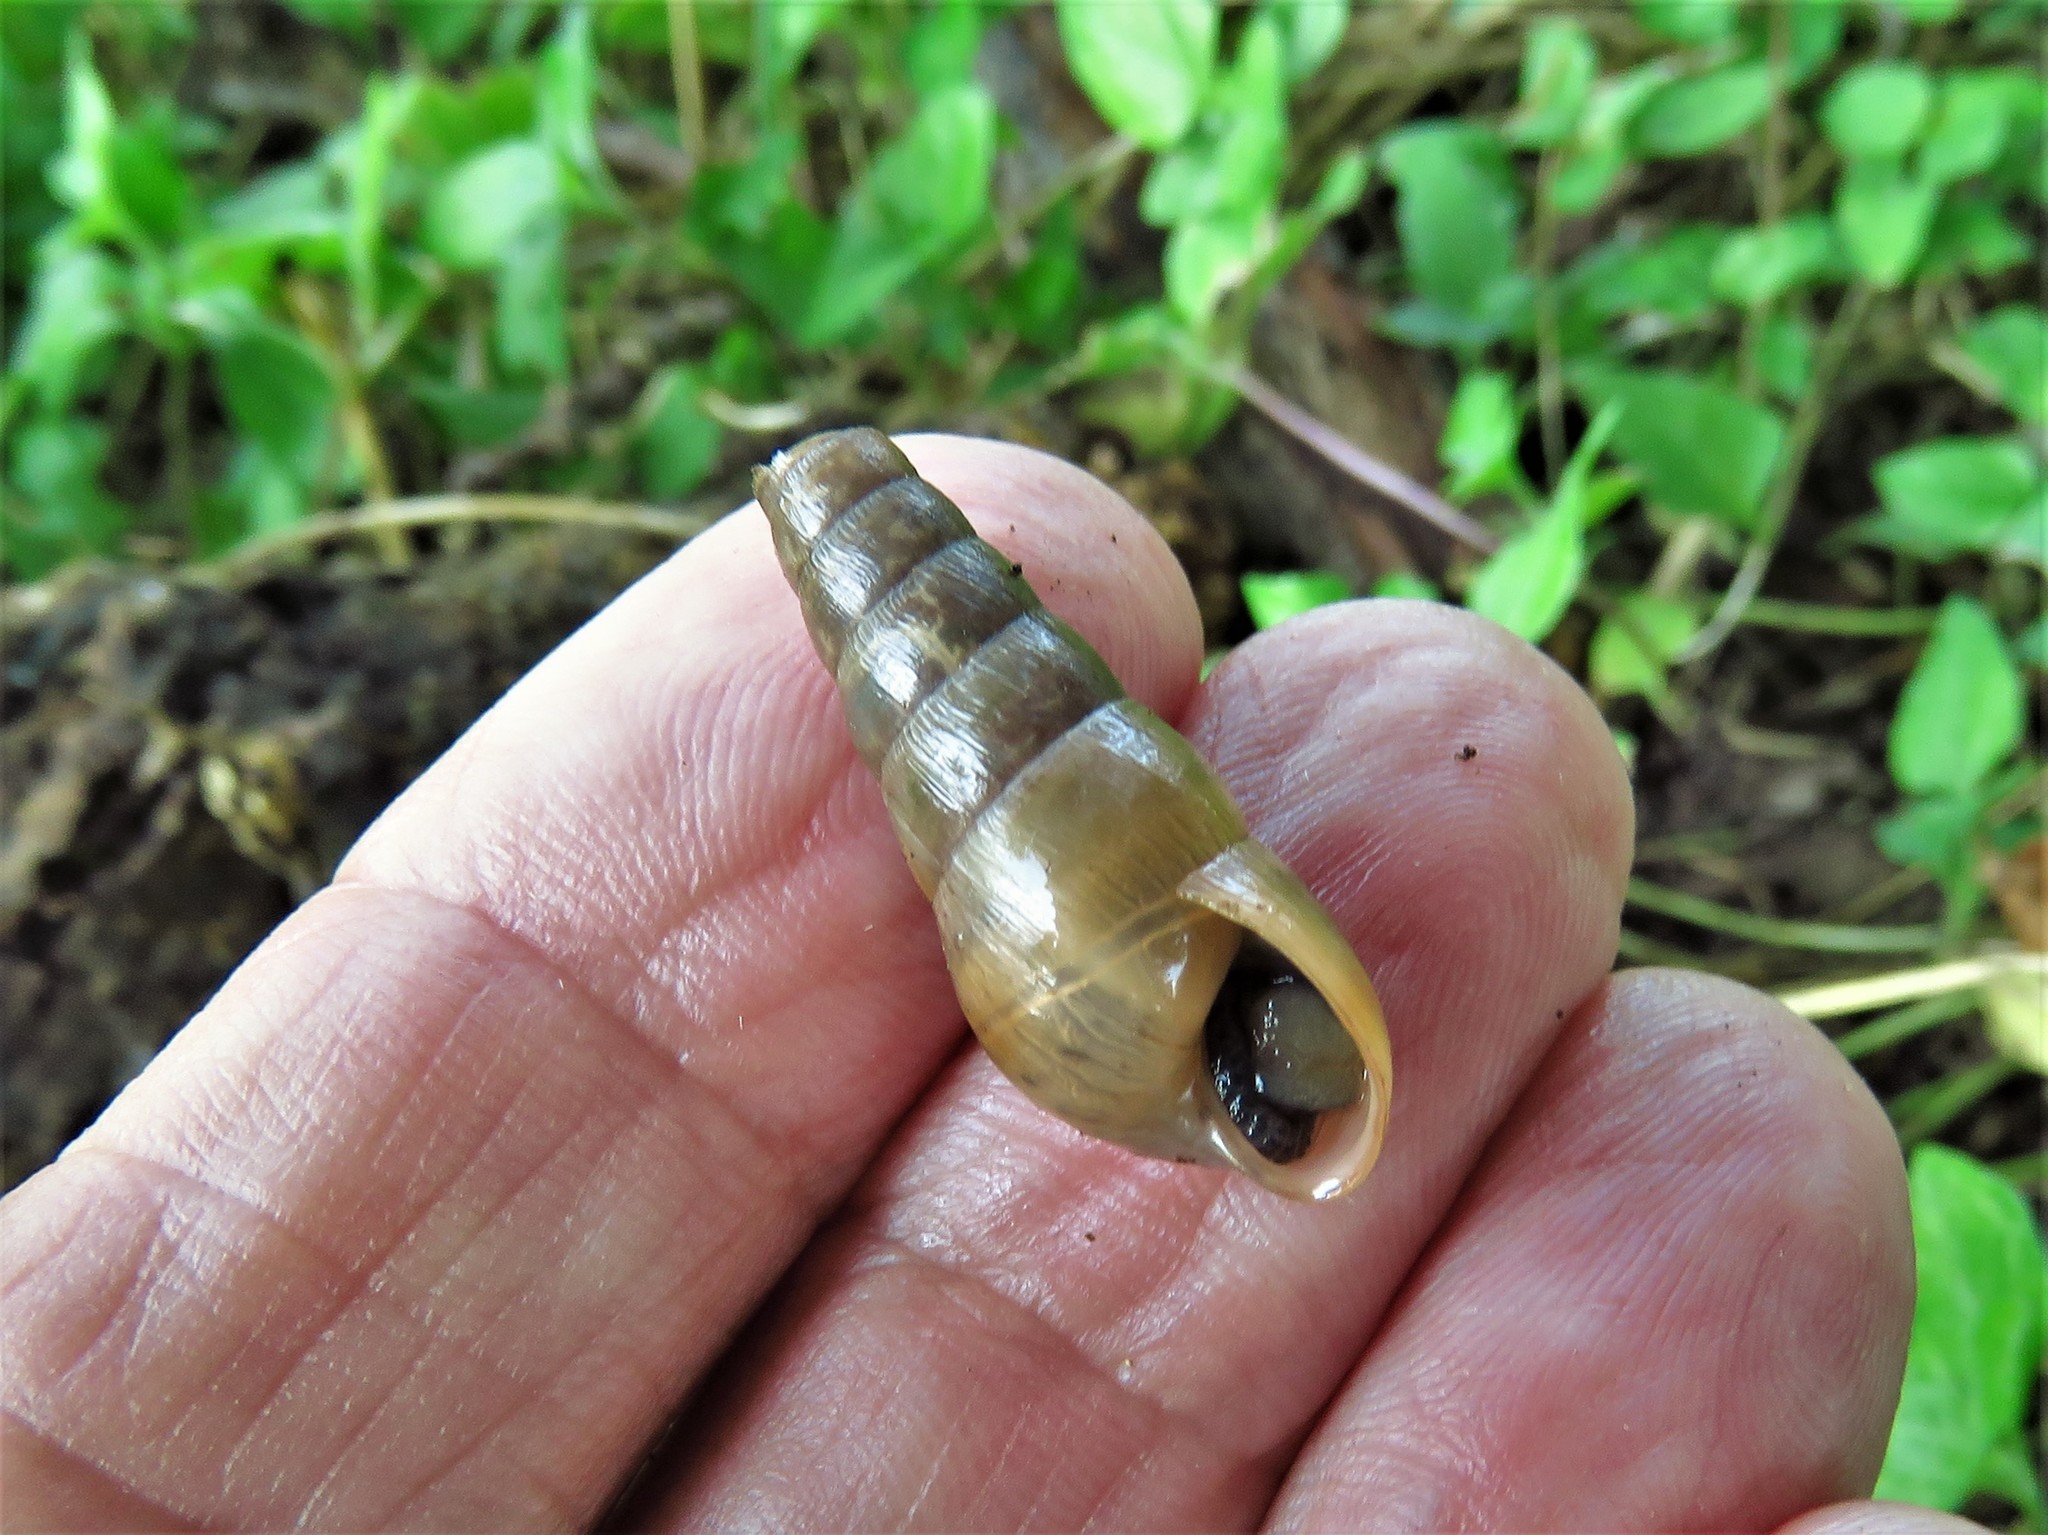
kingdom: Animalia
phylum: Mollusca
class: Gastropoda
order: Stylommatophora
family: Achatinidae
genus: Rumina
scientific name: Rumina decollata
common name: Decollate snail
